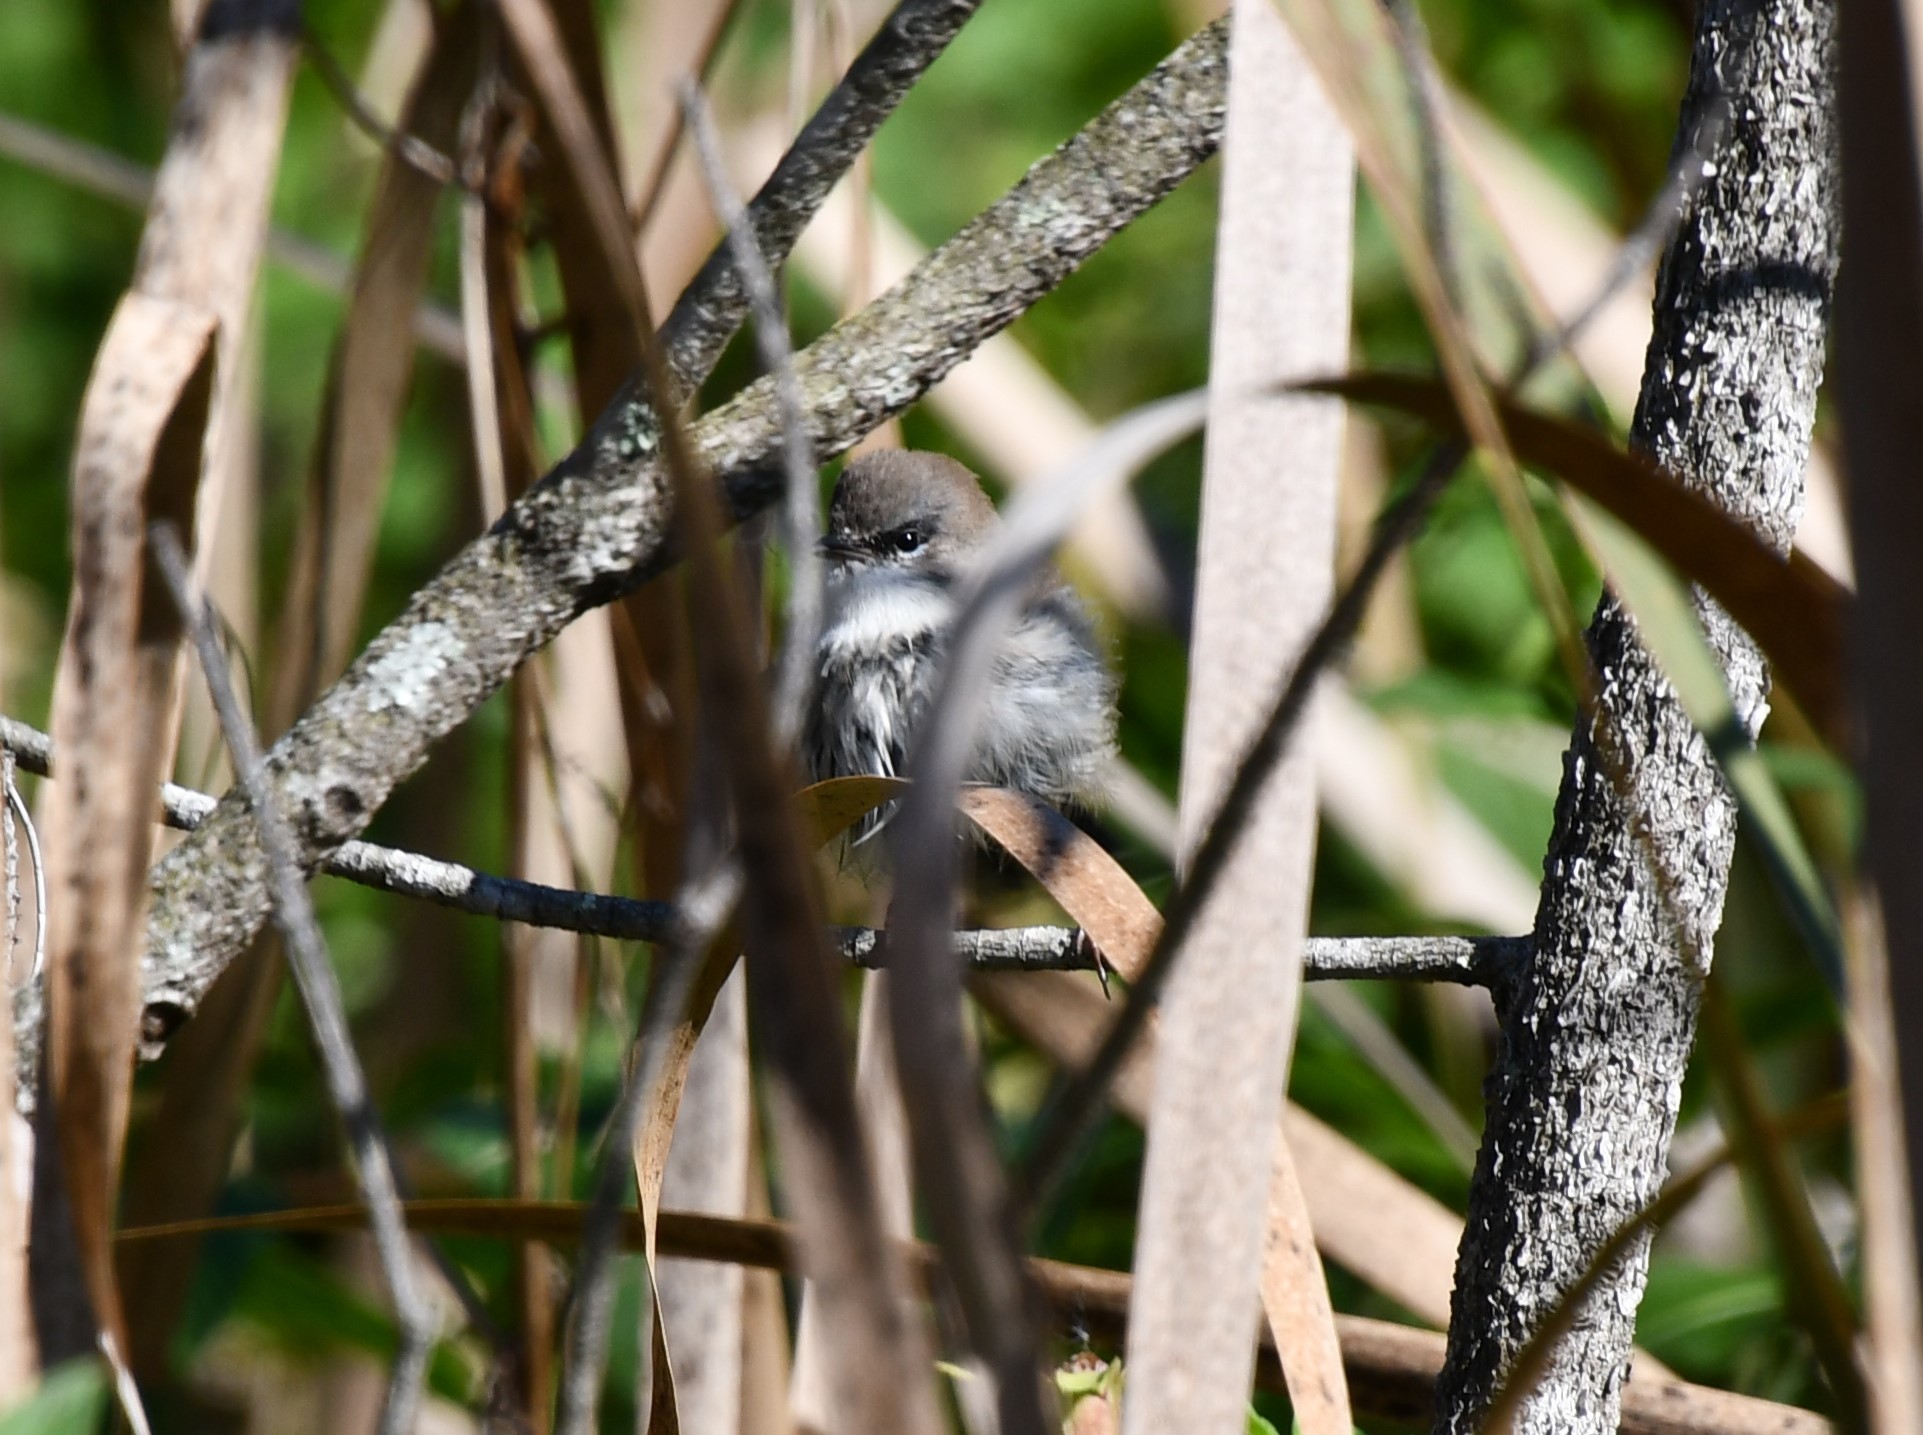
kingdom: Animalia
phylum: Chordata
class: Aves
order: Passeriformes
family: Maluridae
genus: Malurus
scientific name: Malurus cyaneus
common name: Superb fairywren
